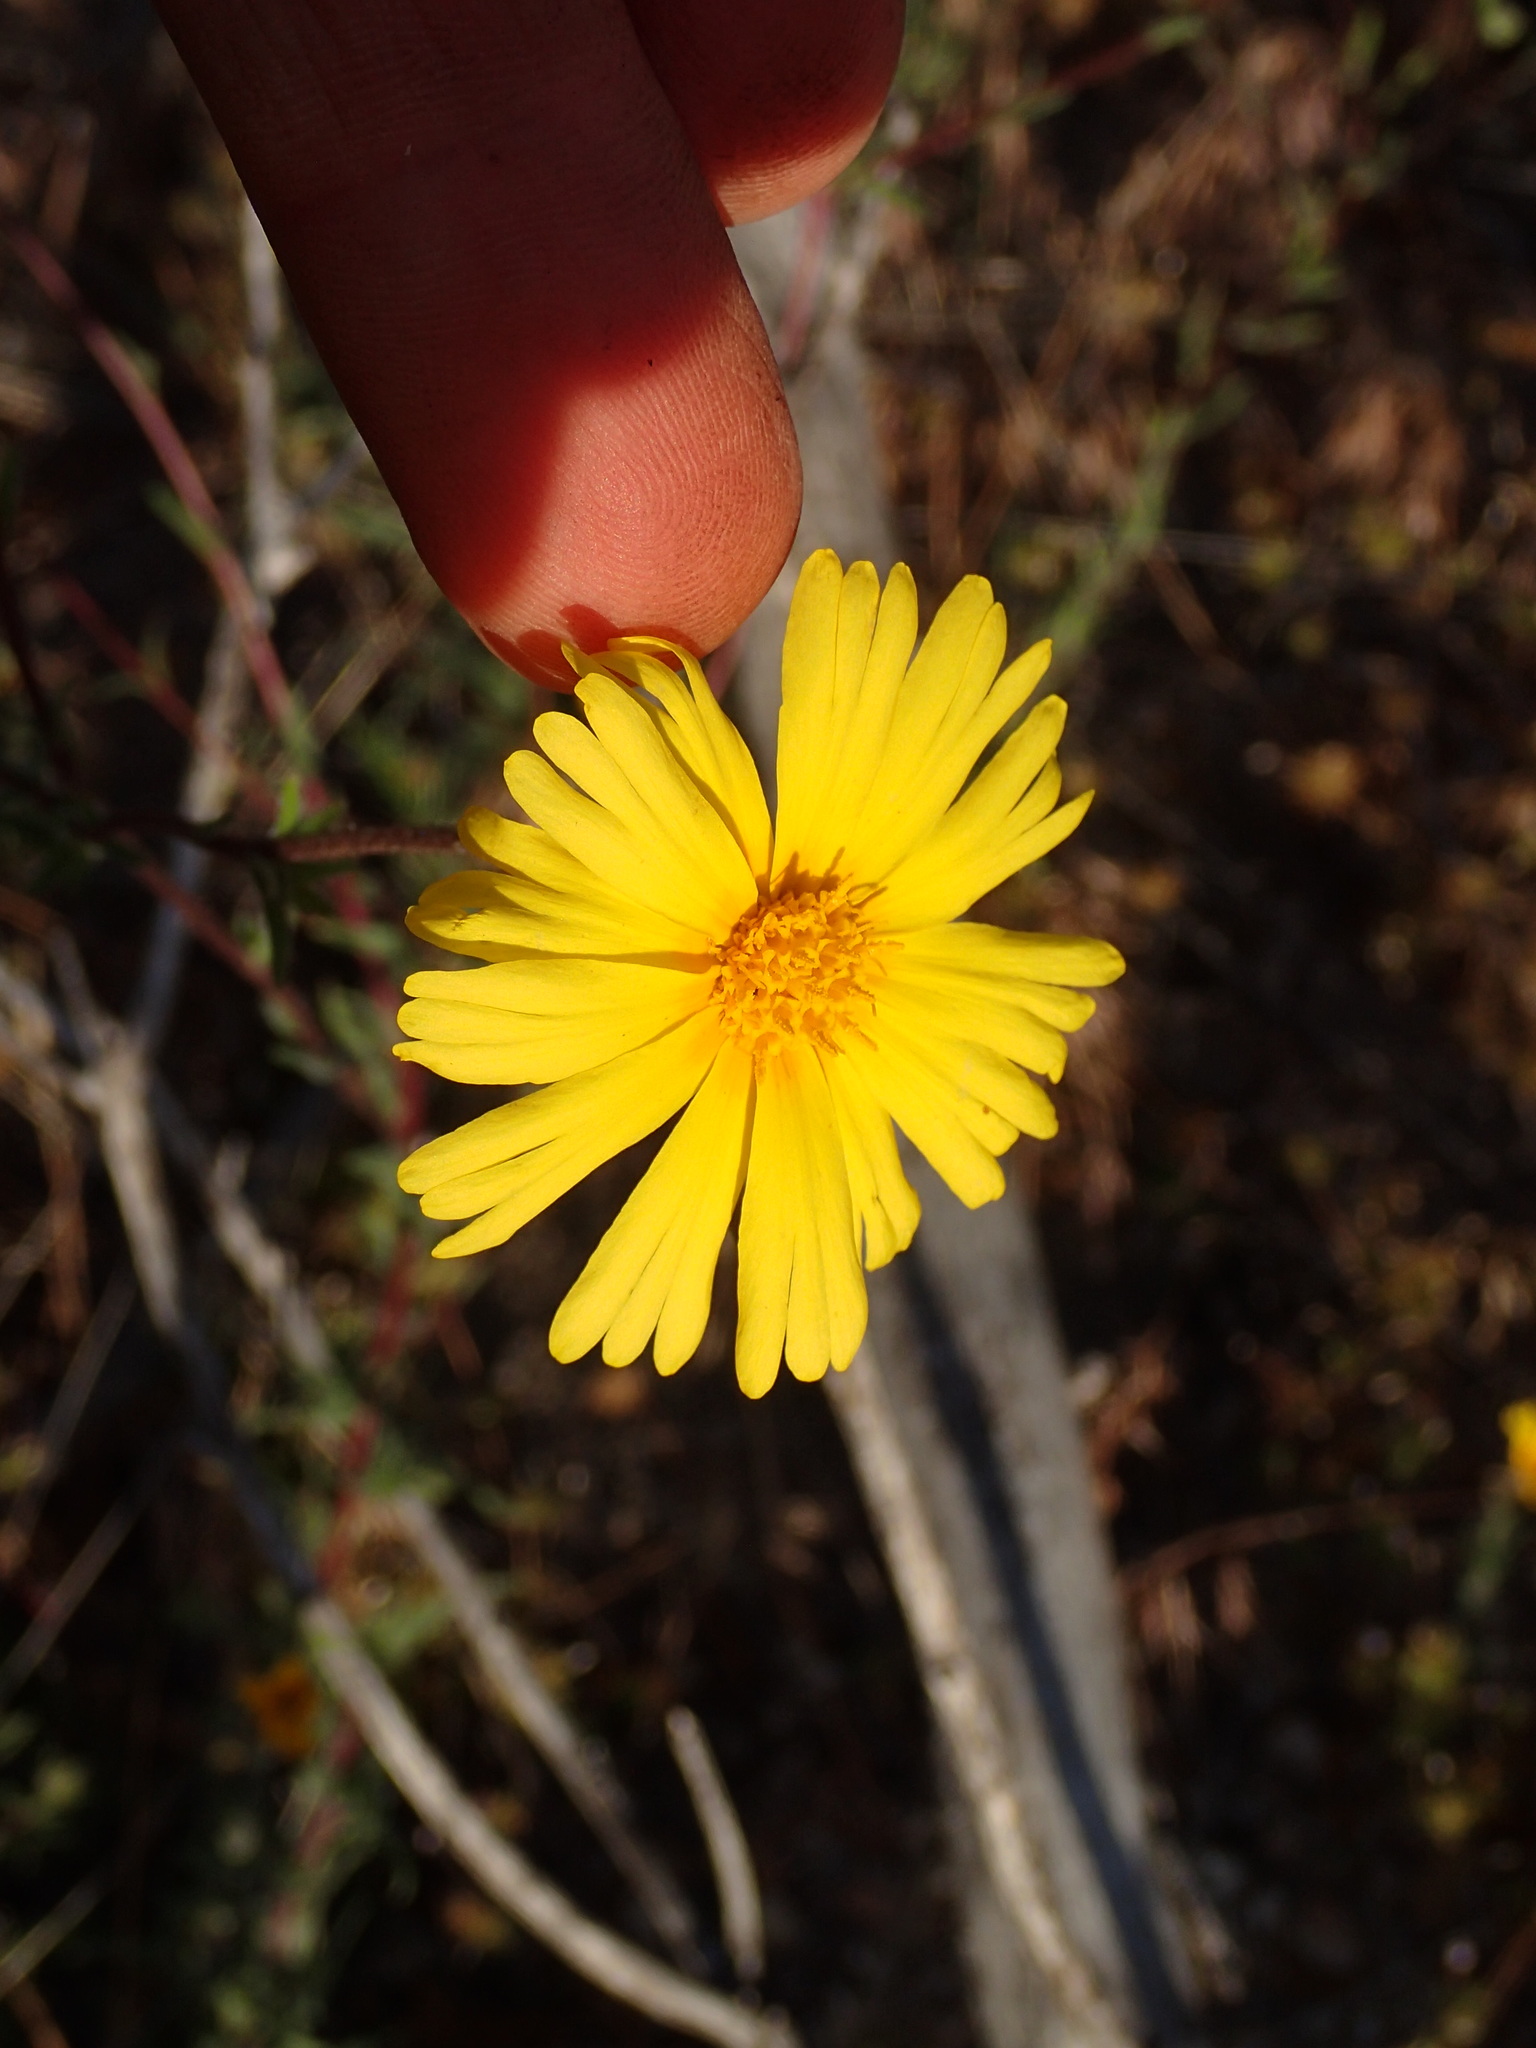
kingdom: Plantae
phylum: Tracheophyta
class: Magnoliopsida
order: Asterales
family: Asteraceae
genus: Madia
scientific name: Madia elegans
